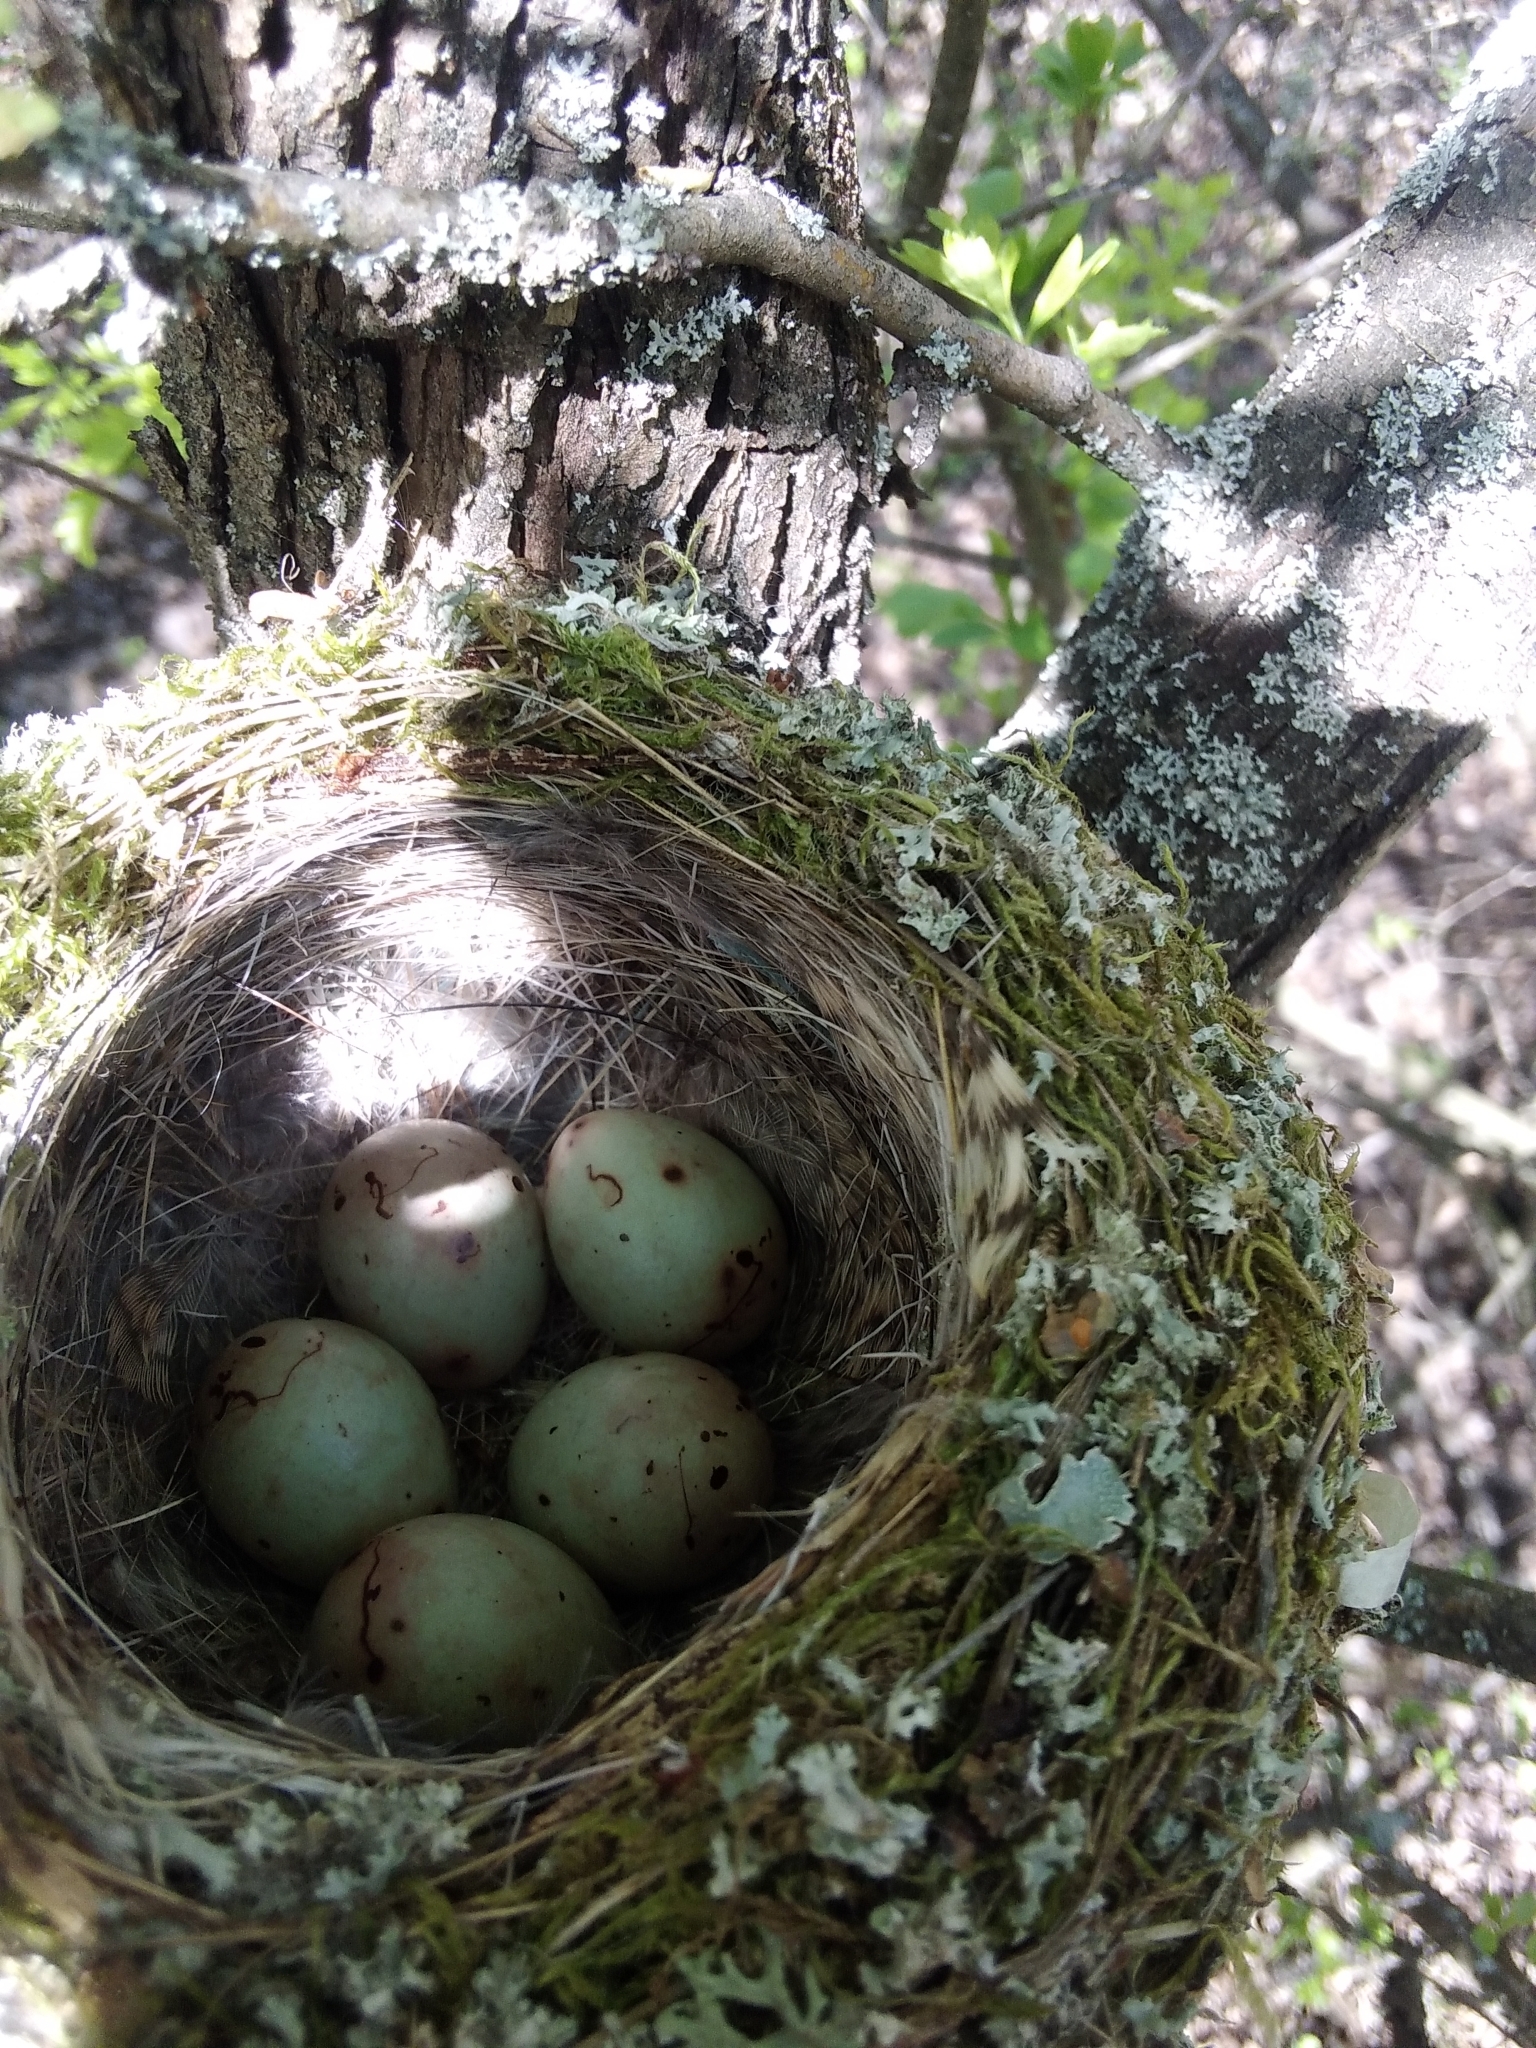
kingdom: Animalia
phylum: Chordata
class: Aves
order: Passeriformes
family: Fringillidae
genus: Fringilla
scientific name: Fringilla coelebs
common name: Common chaffinch
